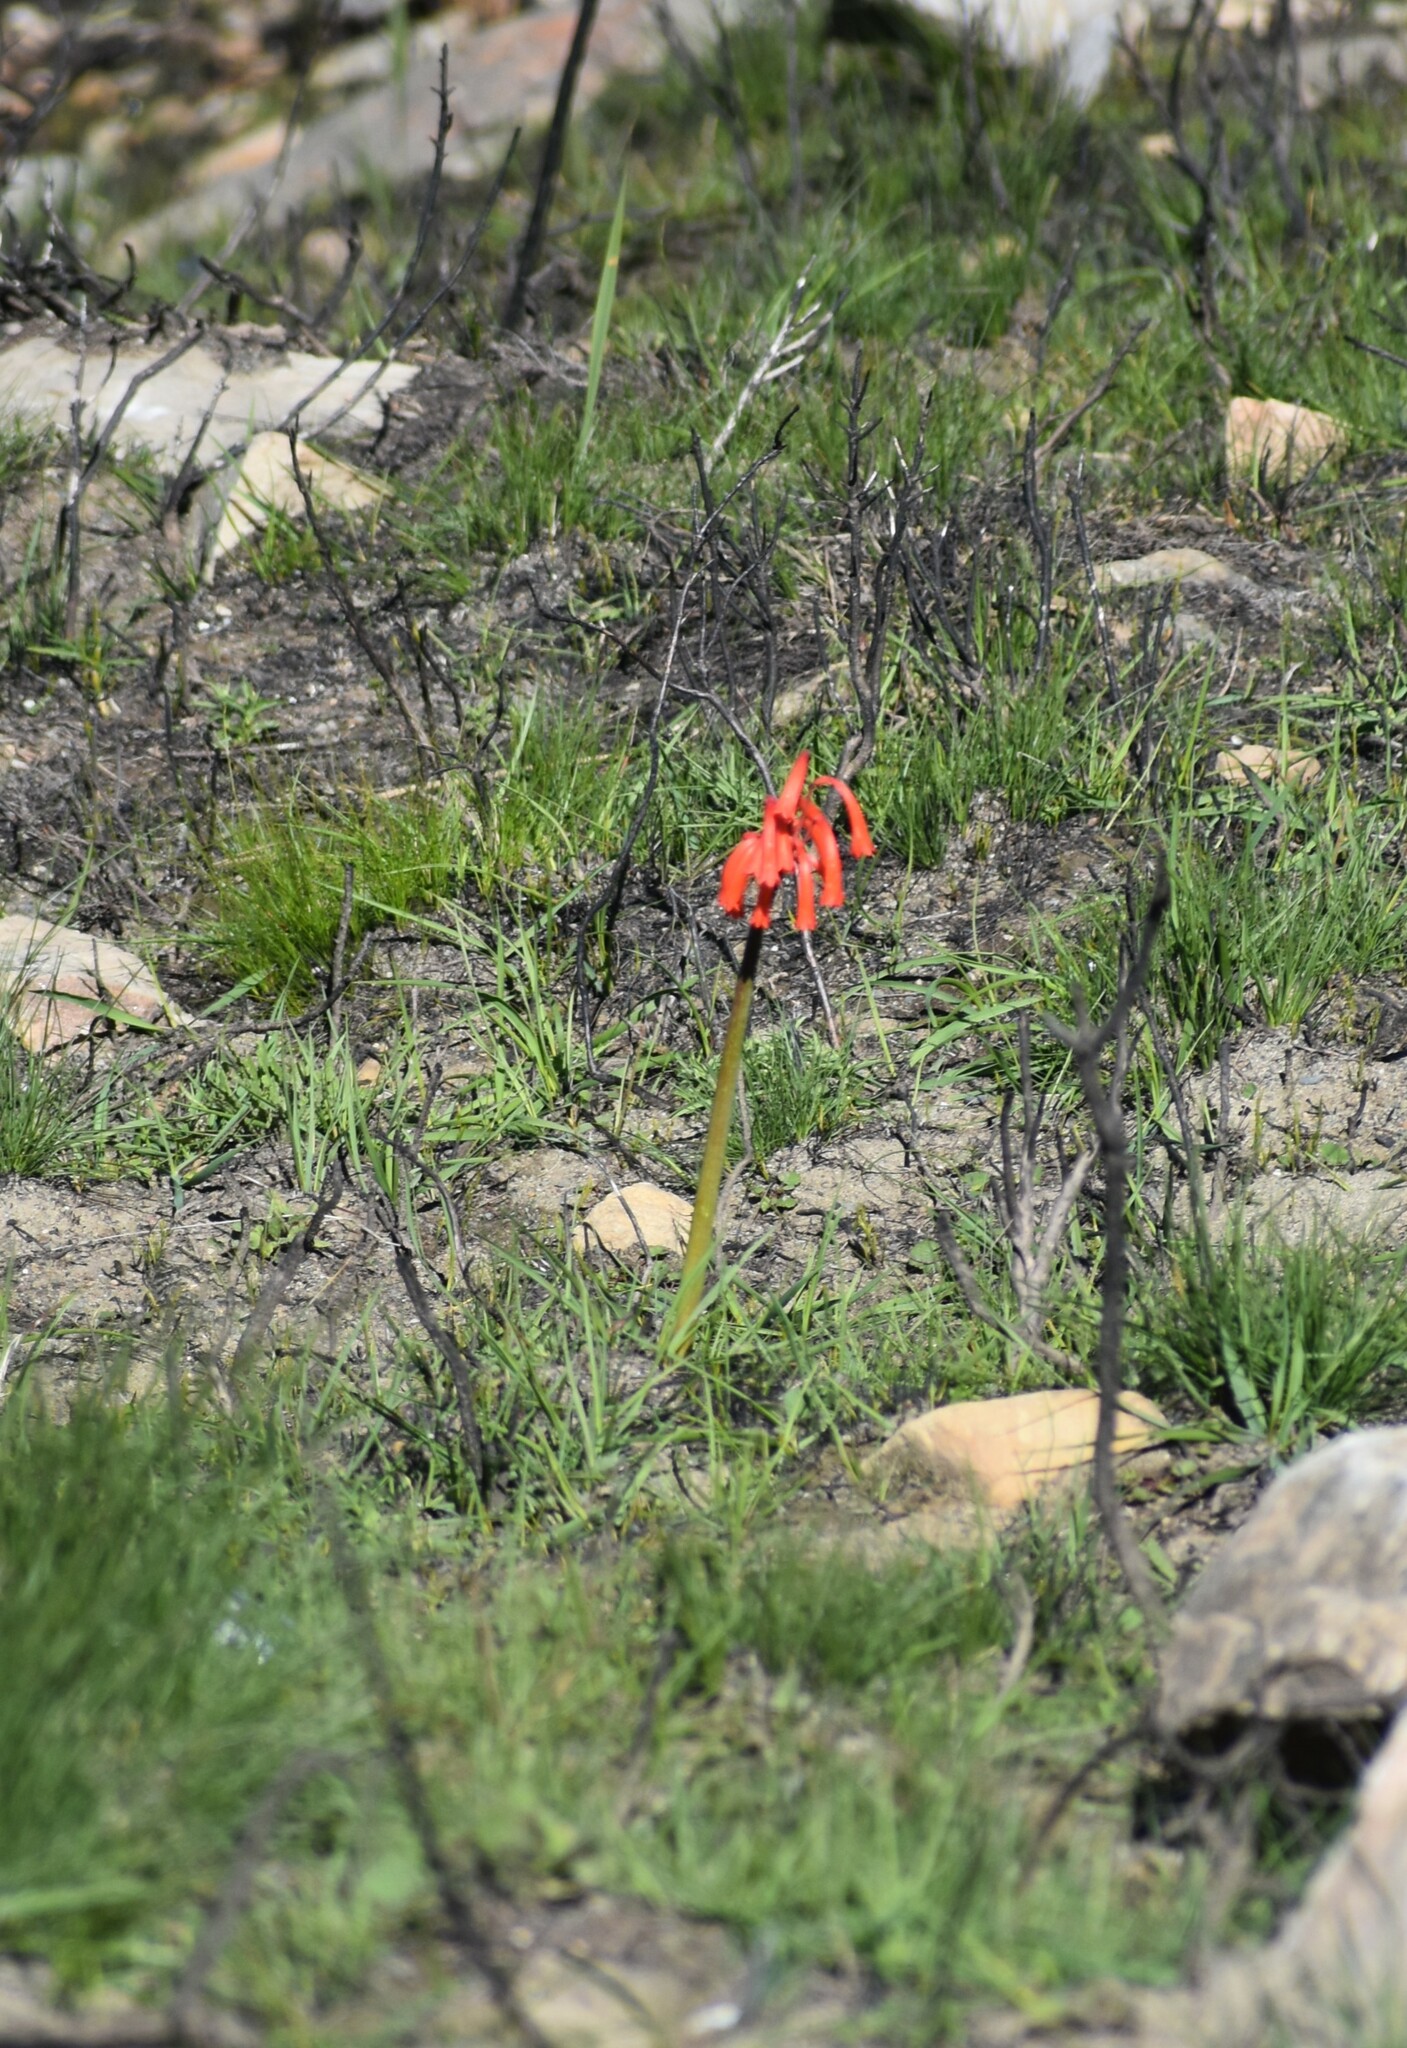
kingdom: Plantae
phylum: Tracheophyta
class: Liliopsida
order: Asparagales
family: Amaryllidaceae
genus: Cyrtanthus
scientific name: Cyrtanthus angustifolius
